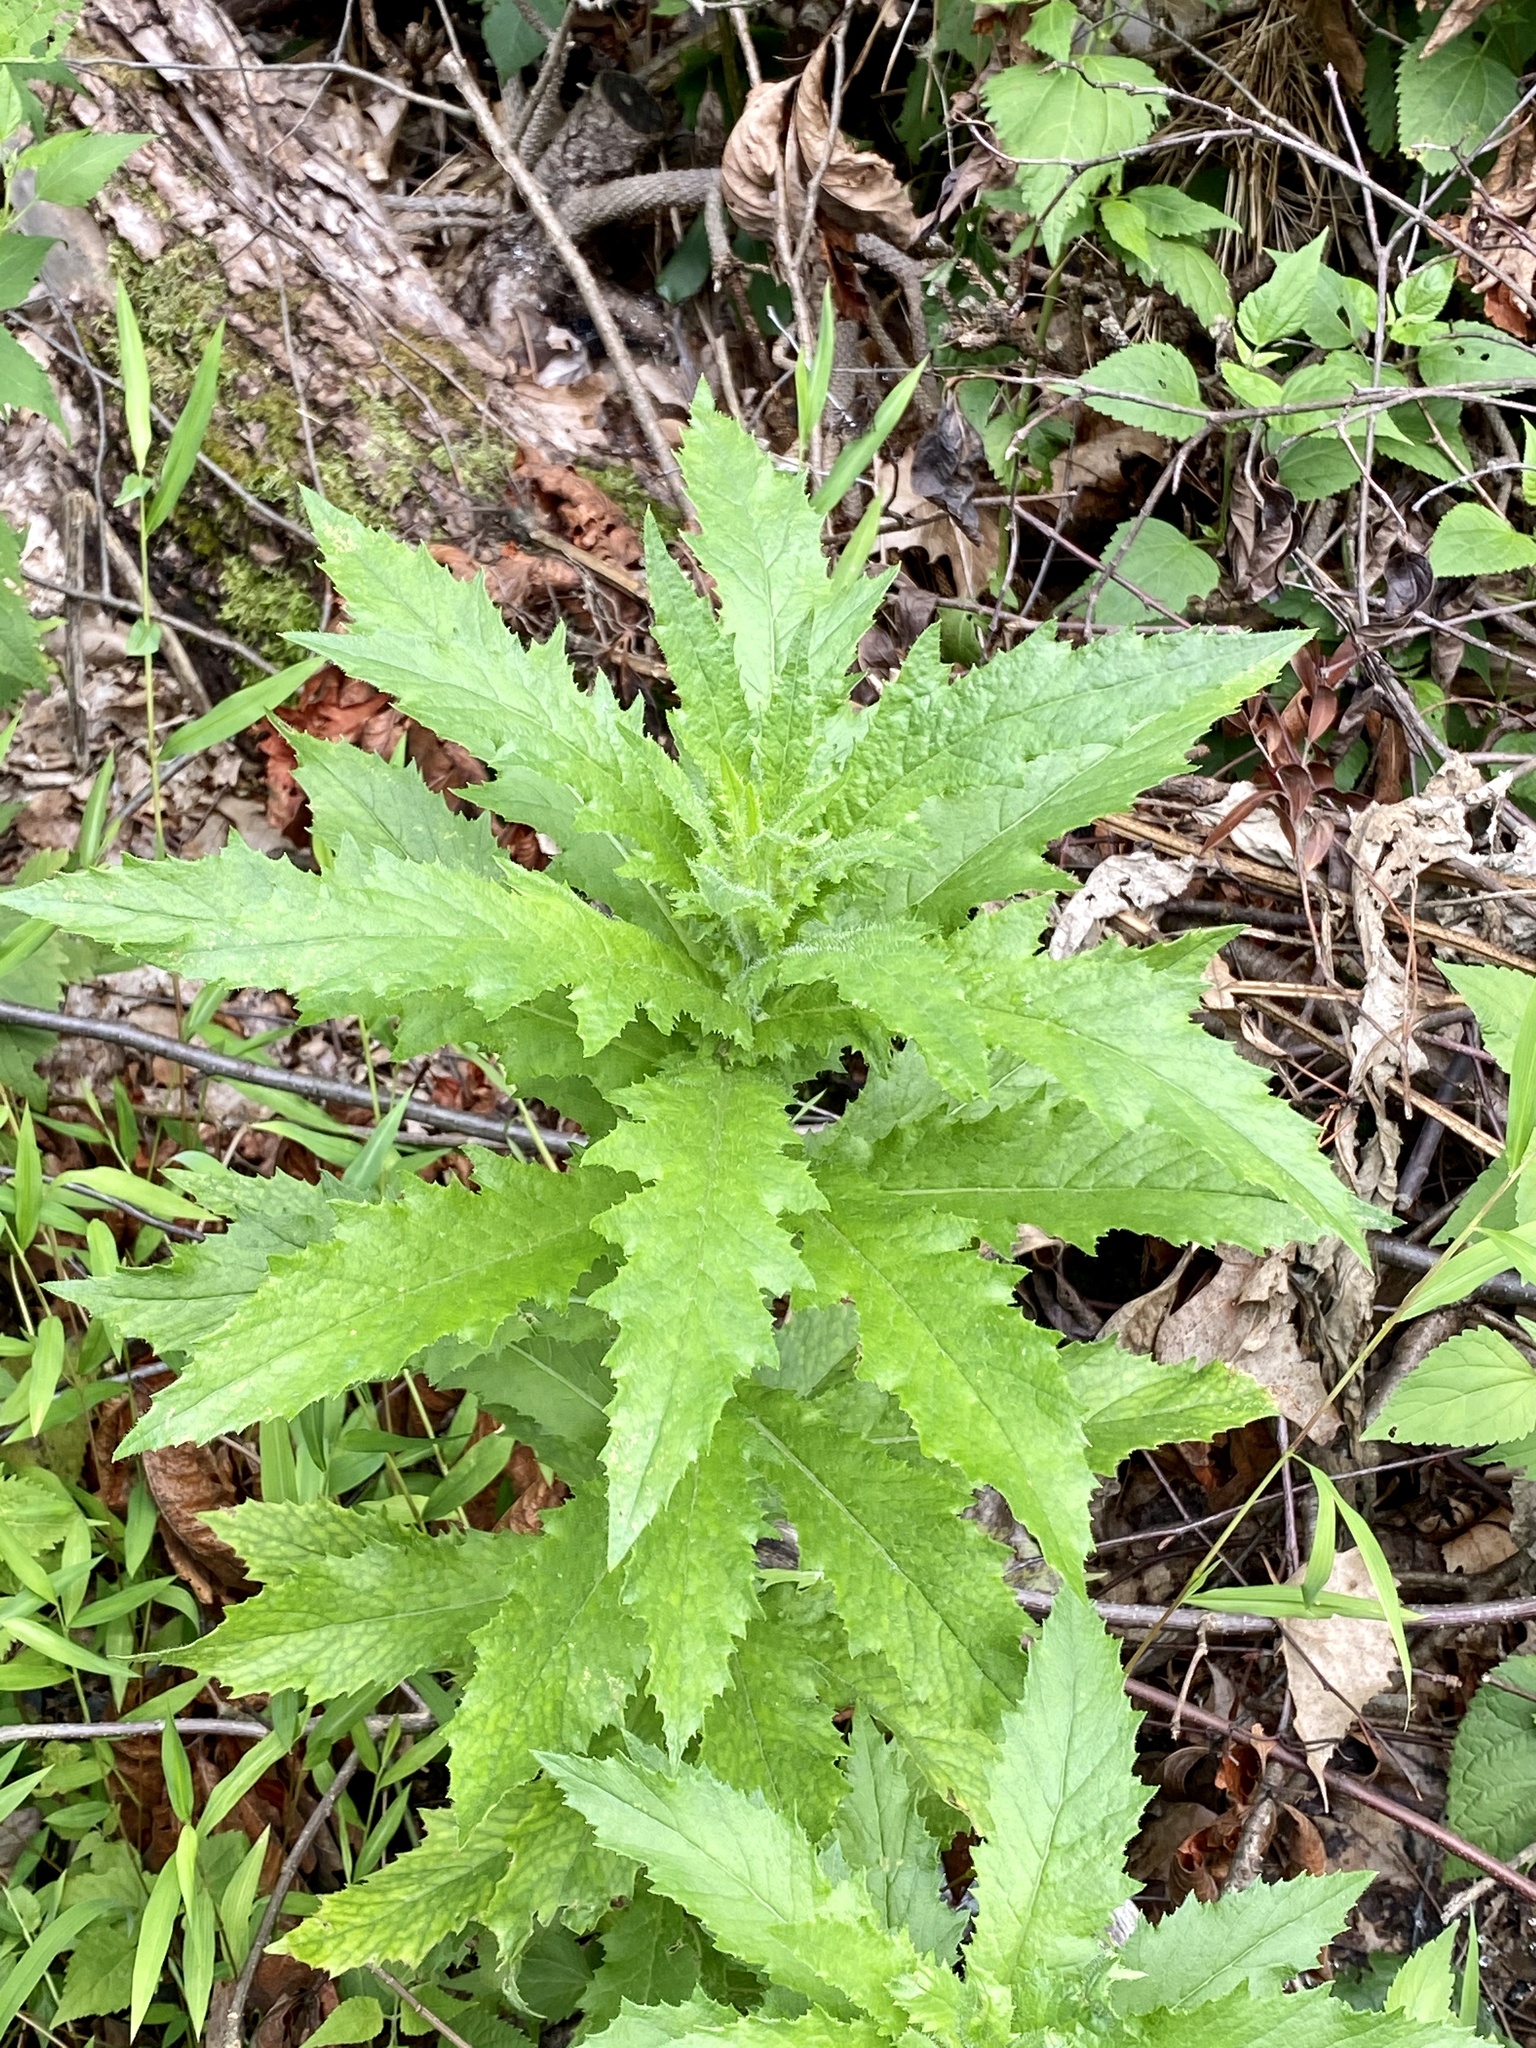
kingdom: Plantae
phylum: Tracheophyta
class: Magnoliopsida
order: Caryophyllales
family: Amaranthaceae
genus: Dysphania
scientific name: Dysphania ambrosioides
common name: Wormseed
